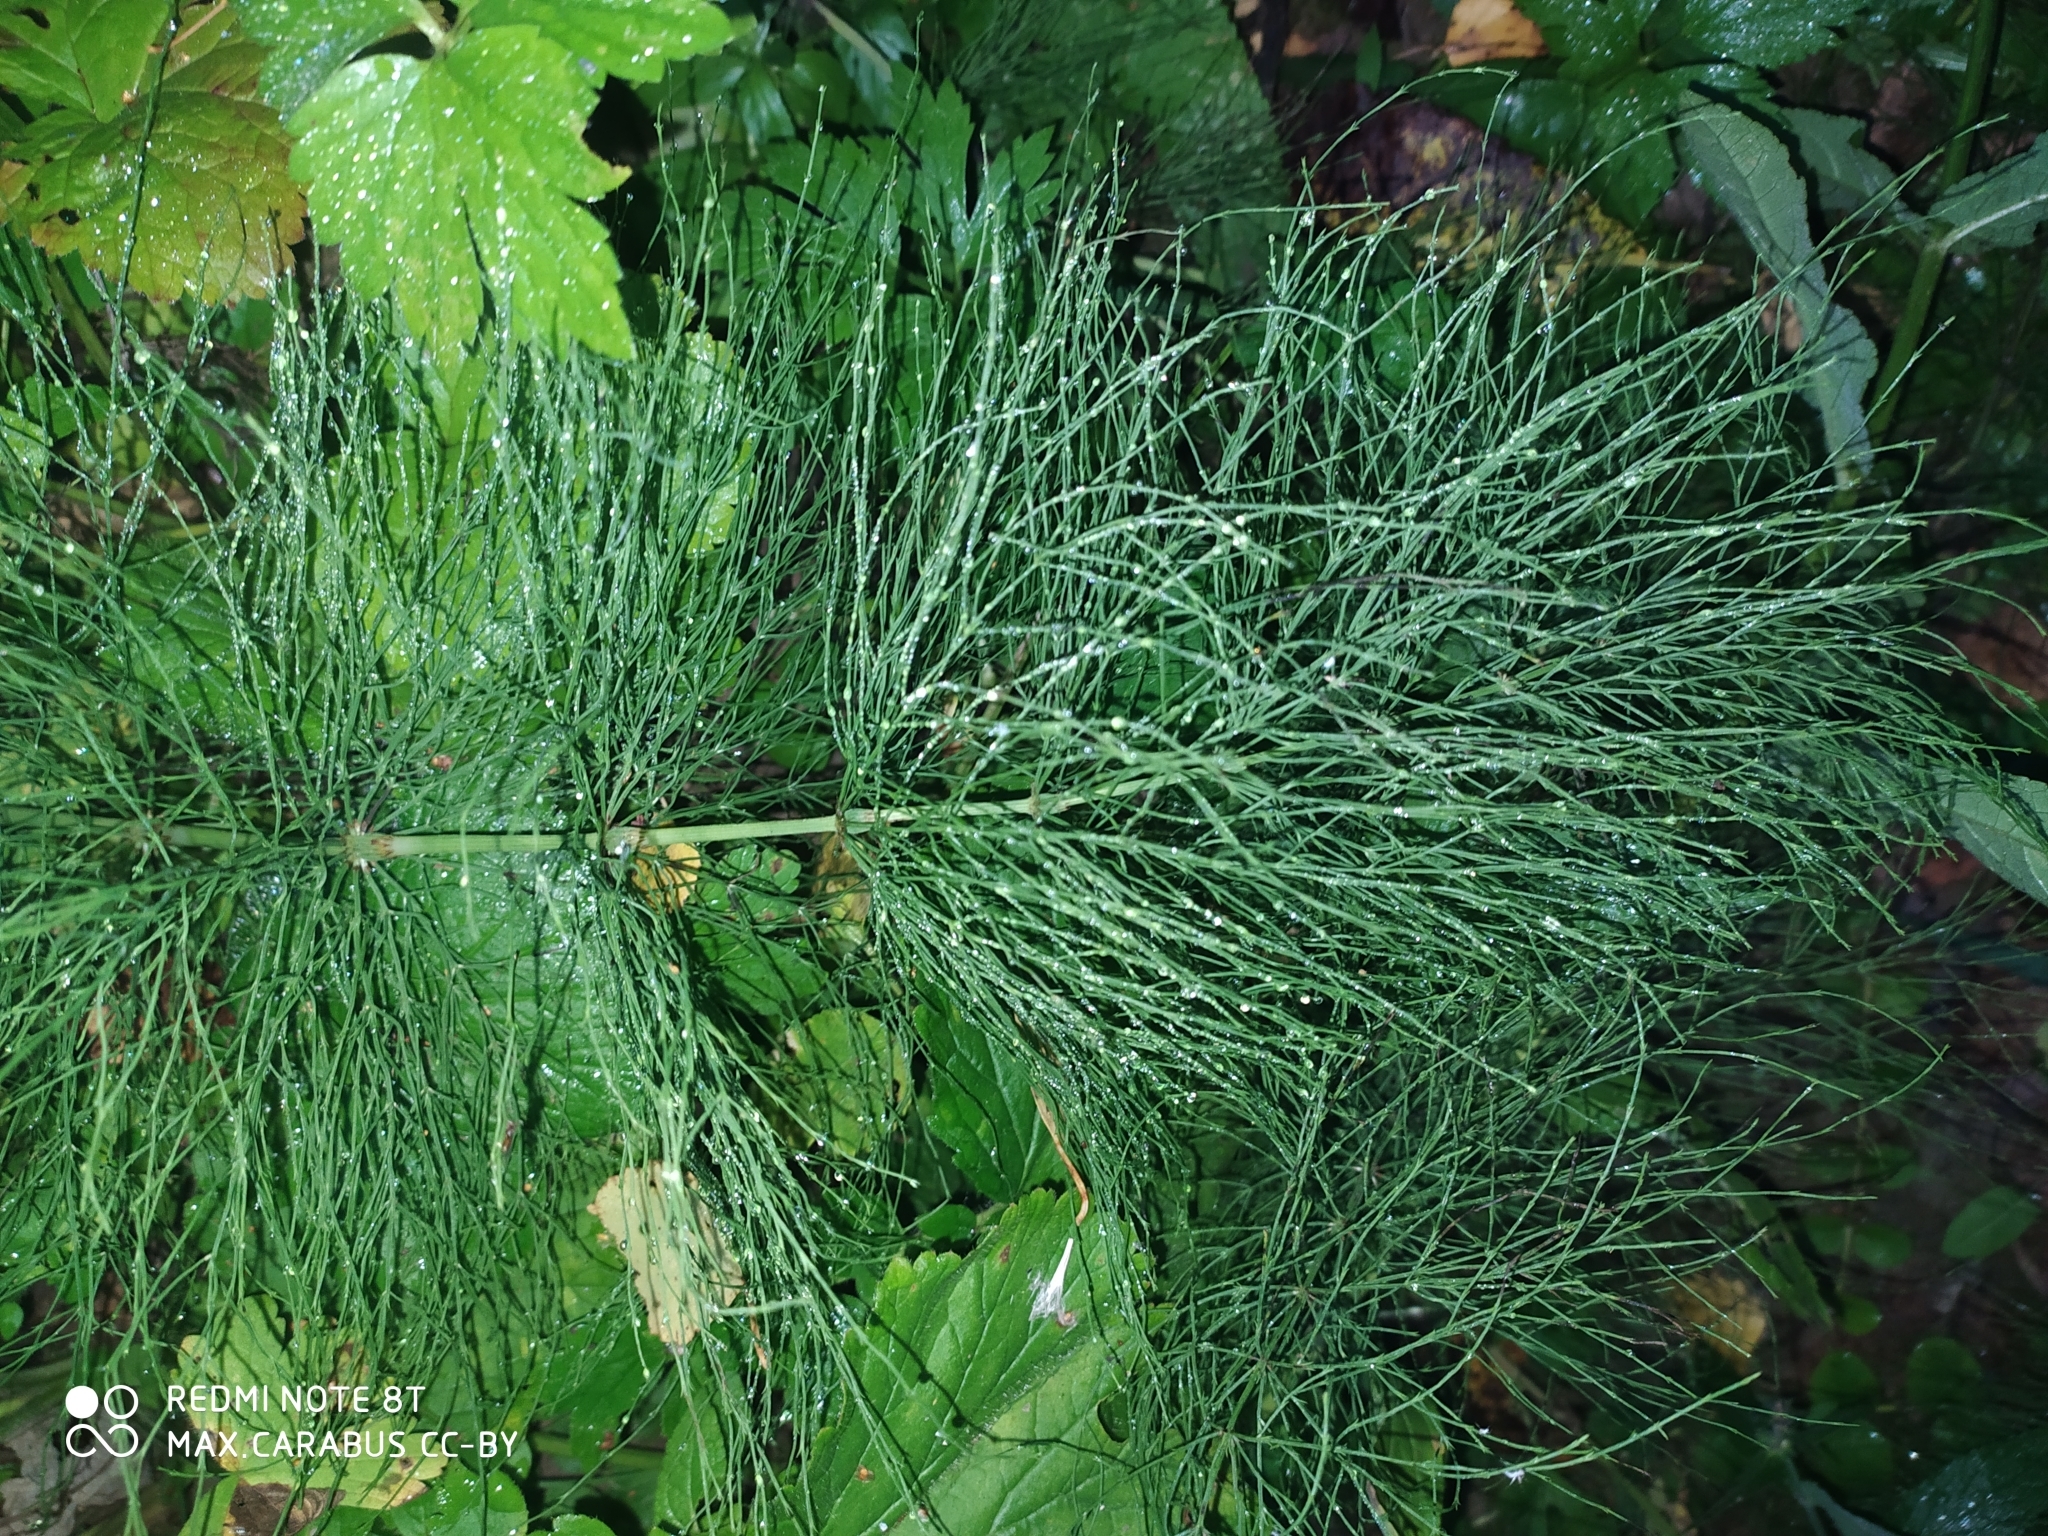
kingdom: Plantae
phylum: Tracheophyta
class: Polypodiopsida
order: Equisetales
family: Equisetaceae
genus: Equisetum
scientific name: Equisetum sylvaticum
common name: Wood horsetail
